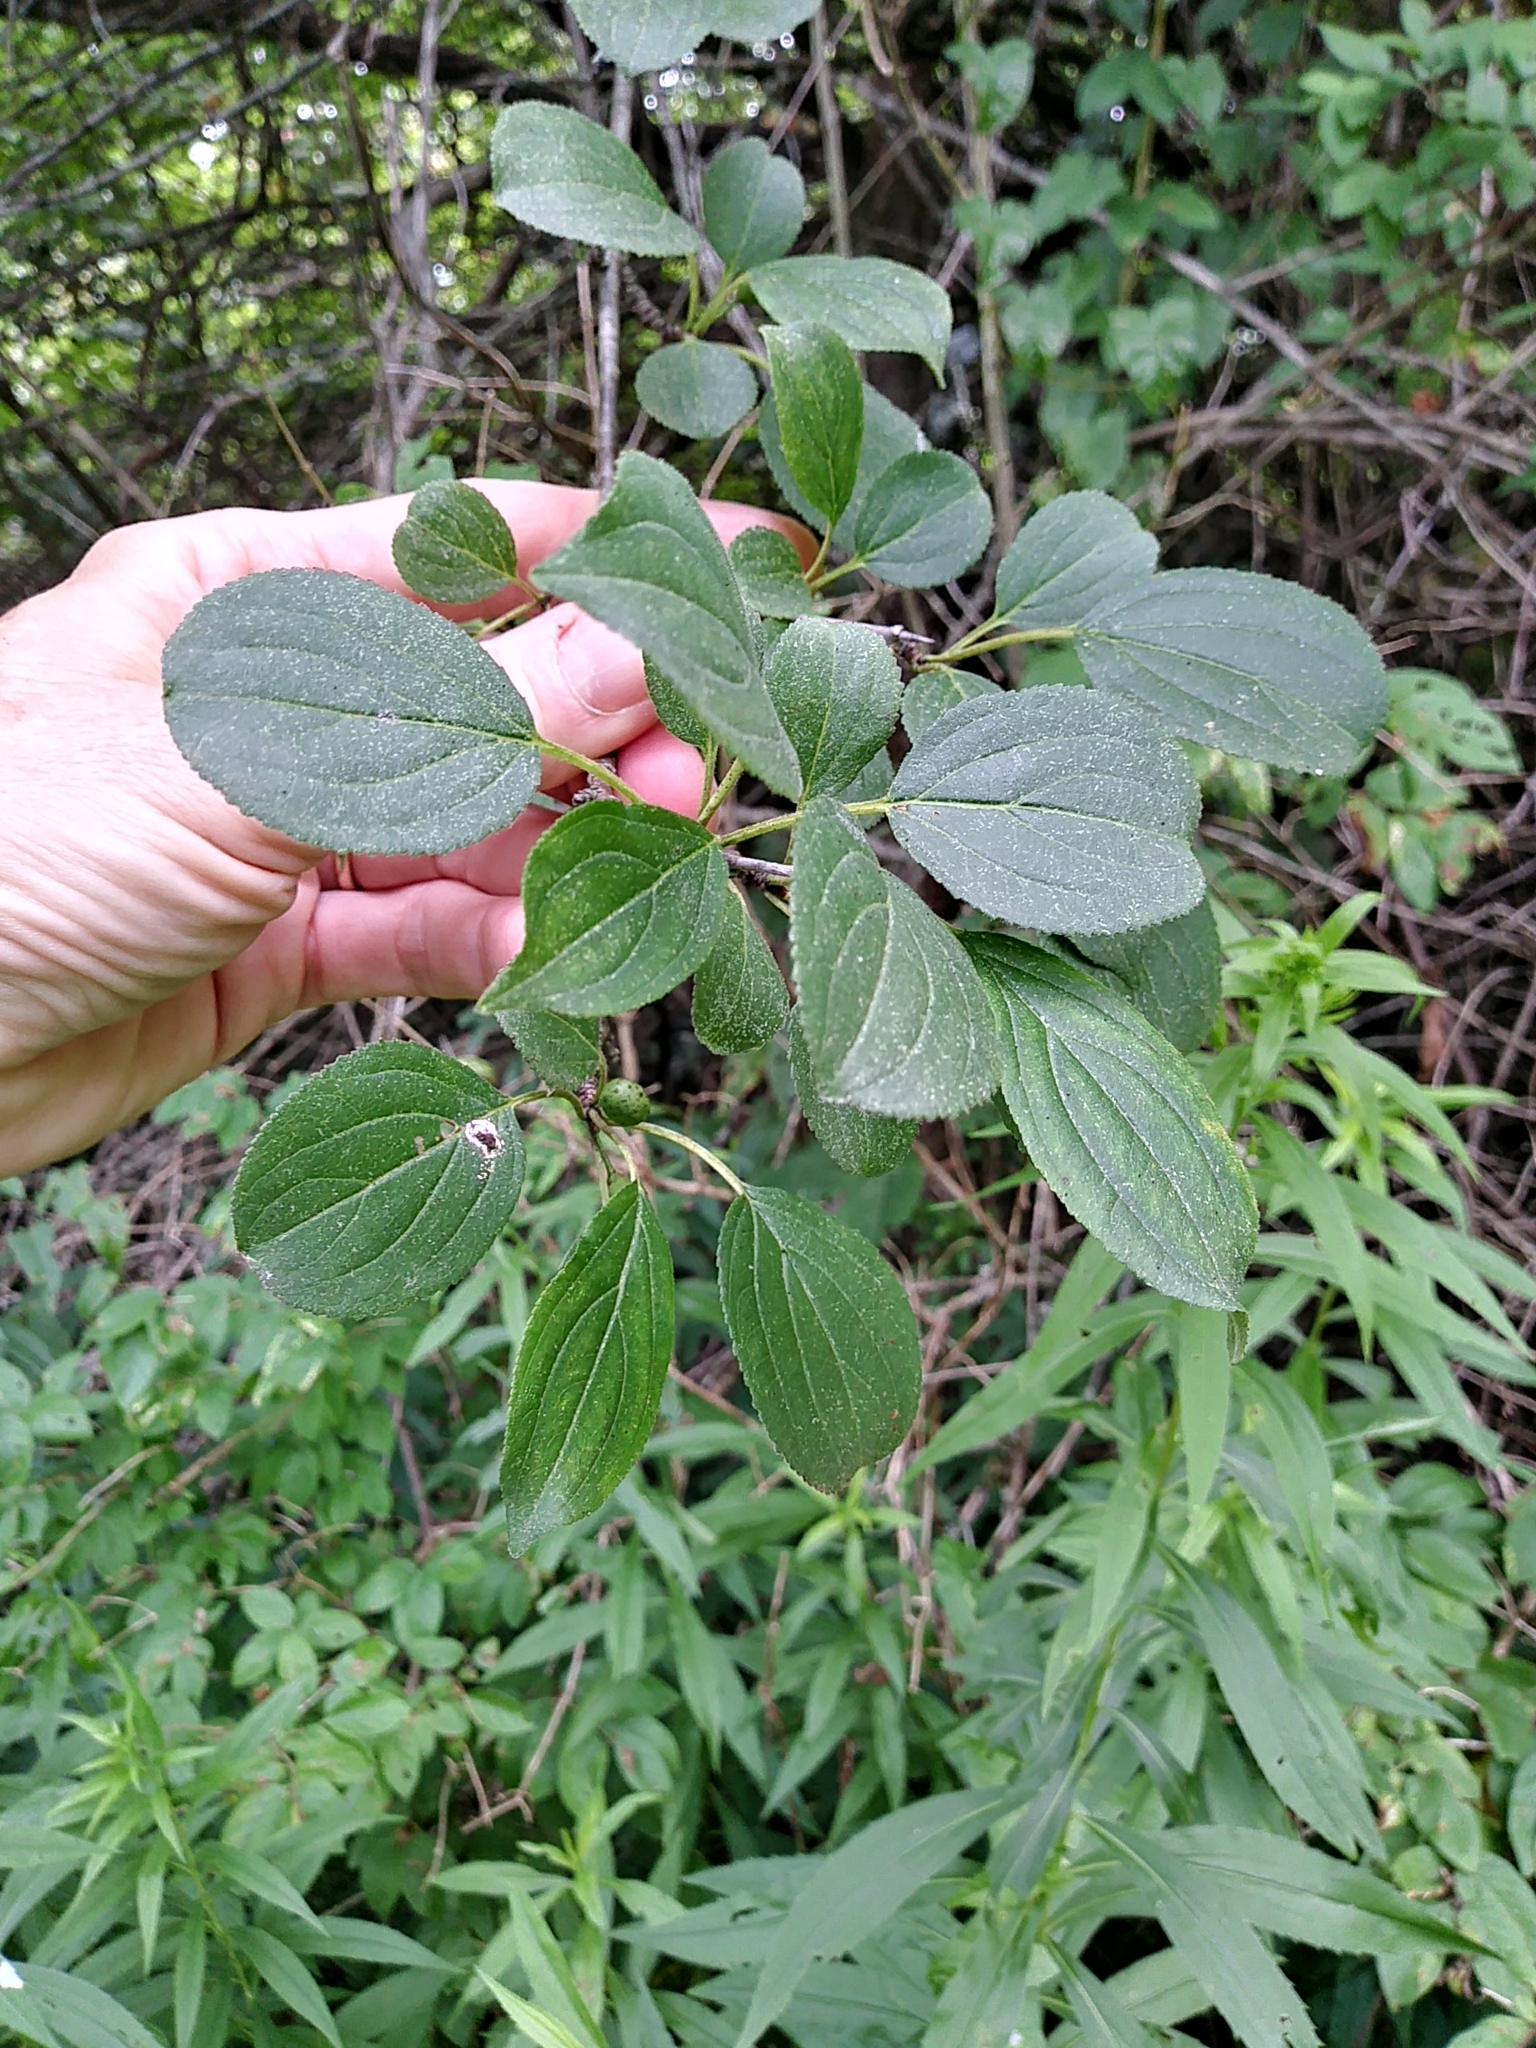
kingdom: Plantae
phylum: Tracheophyta
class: Magnoliopsida
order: Rosales
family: Rhamnaceae
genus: Rhamnus
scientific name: Rhamnus cathartica
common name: Common buckthorn
